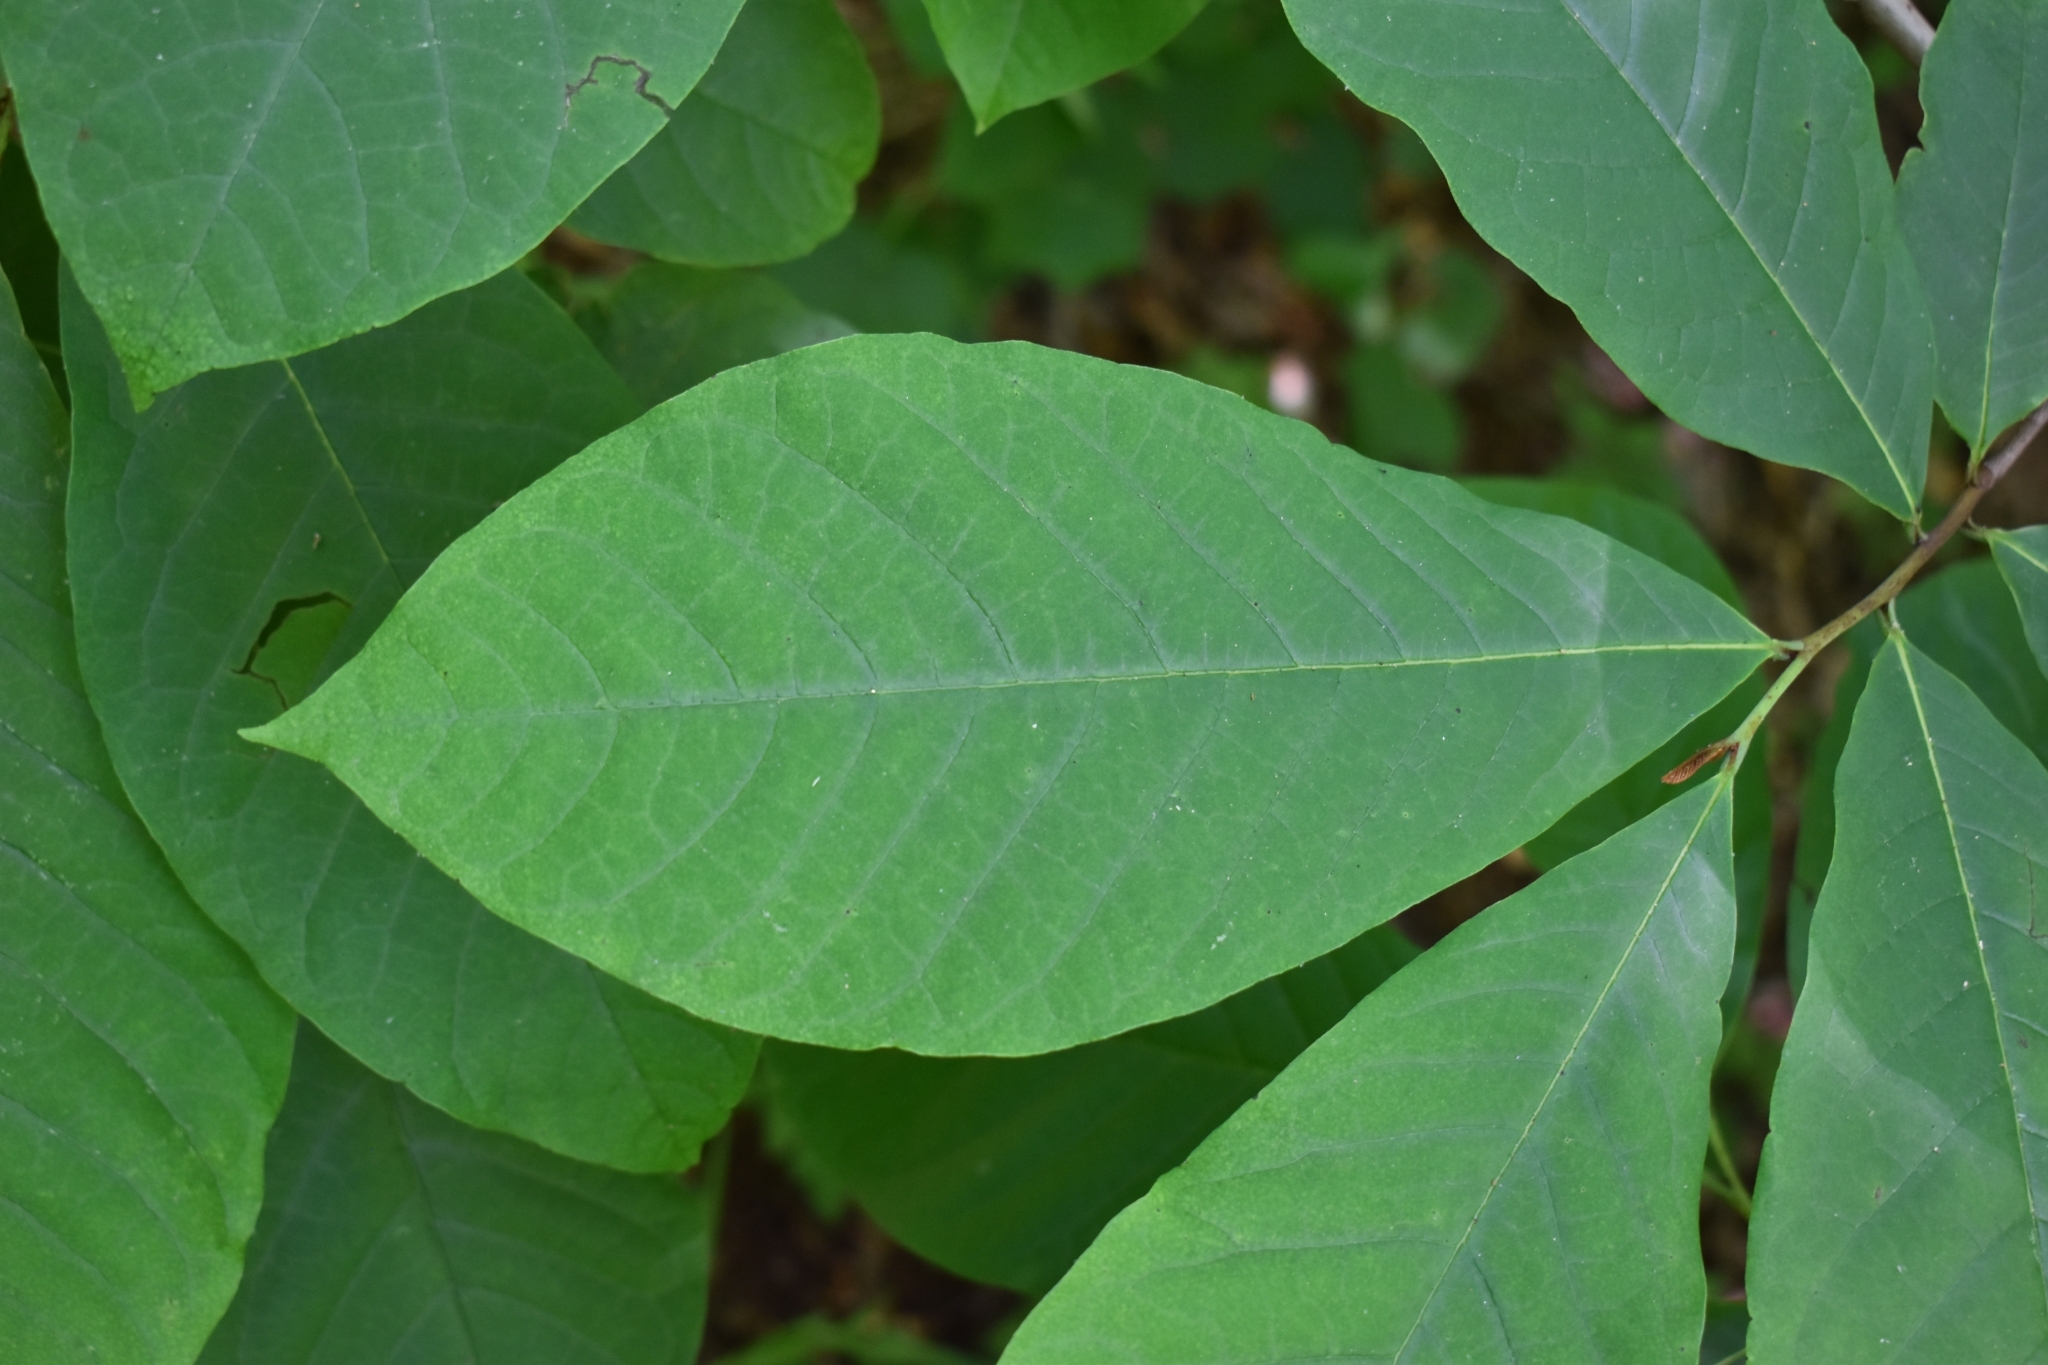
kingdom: Plantae
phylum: Tracheophyta
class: Magnoliopsida
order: Magnoliales
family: Annonaceae
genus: Asimina
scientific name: Asimina triloba
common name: Dog-banana
